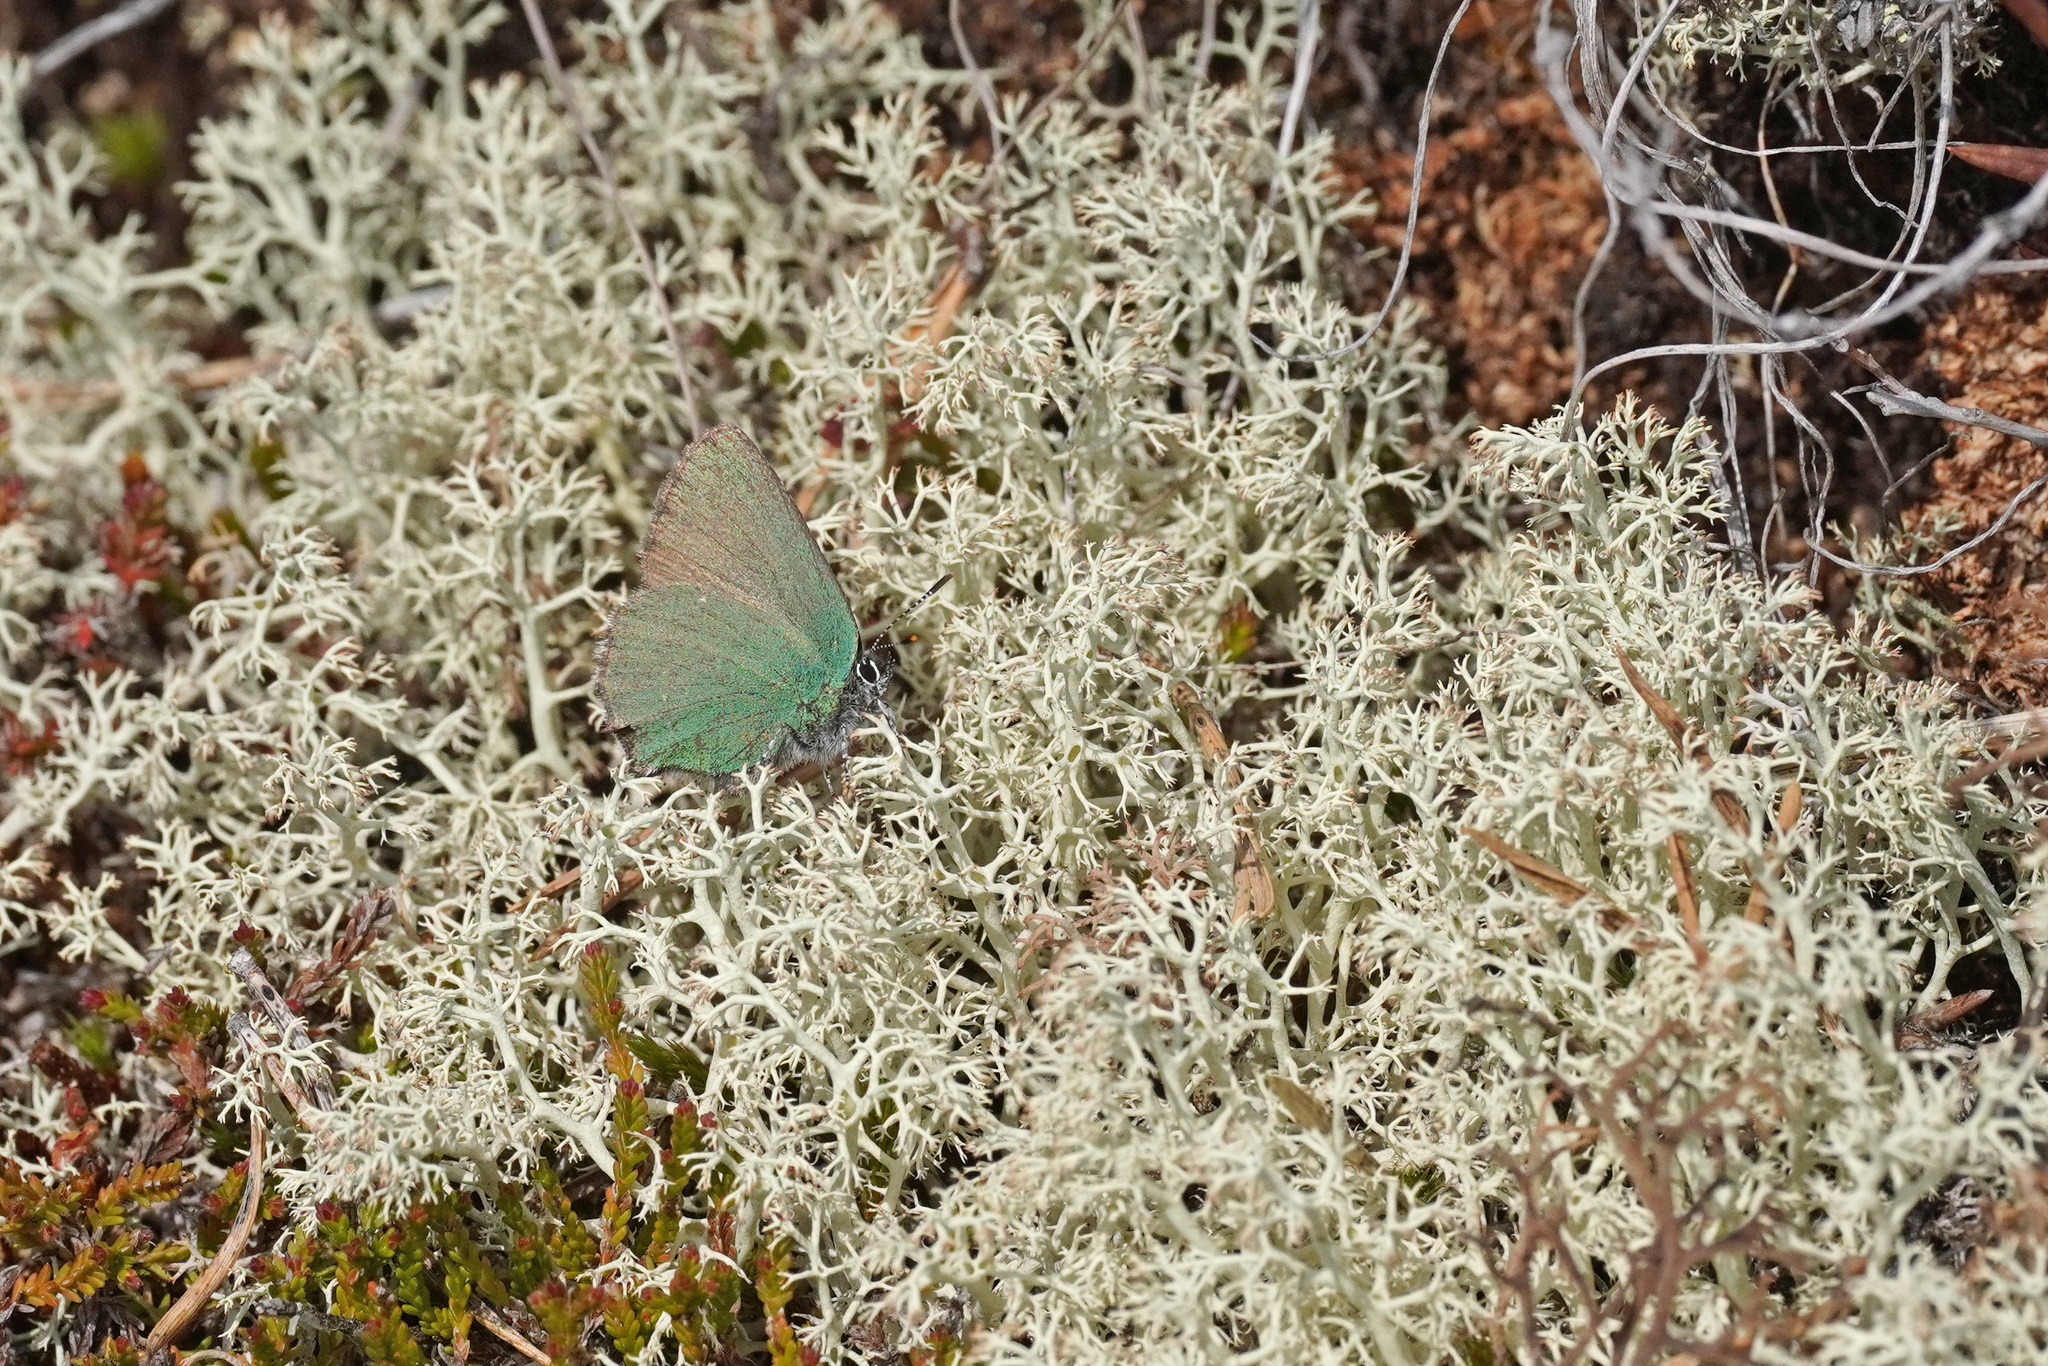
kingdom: Animalia
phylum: Arthropoda
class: Insecta
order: Lepidoptera
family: Lycaenidae
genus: Callophrys
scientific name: Callophrys rubi
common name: Green hairstreak
